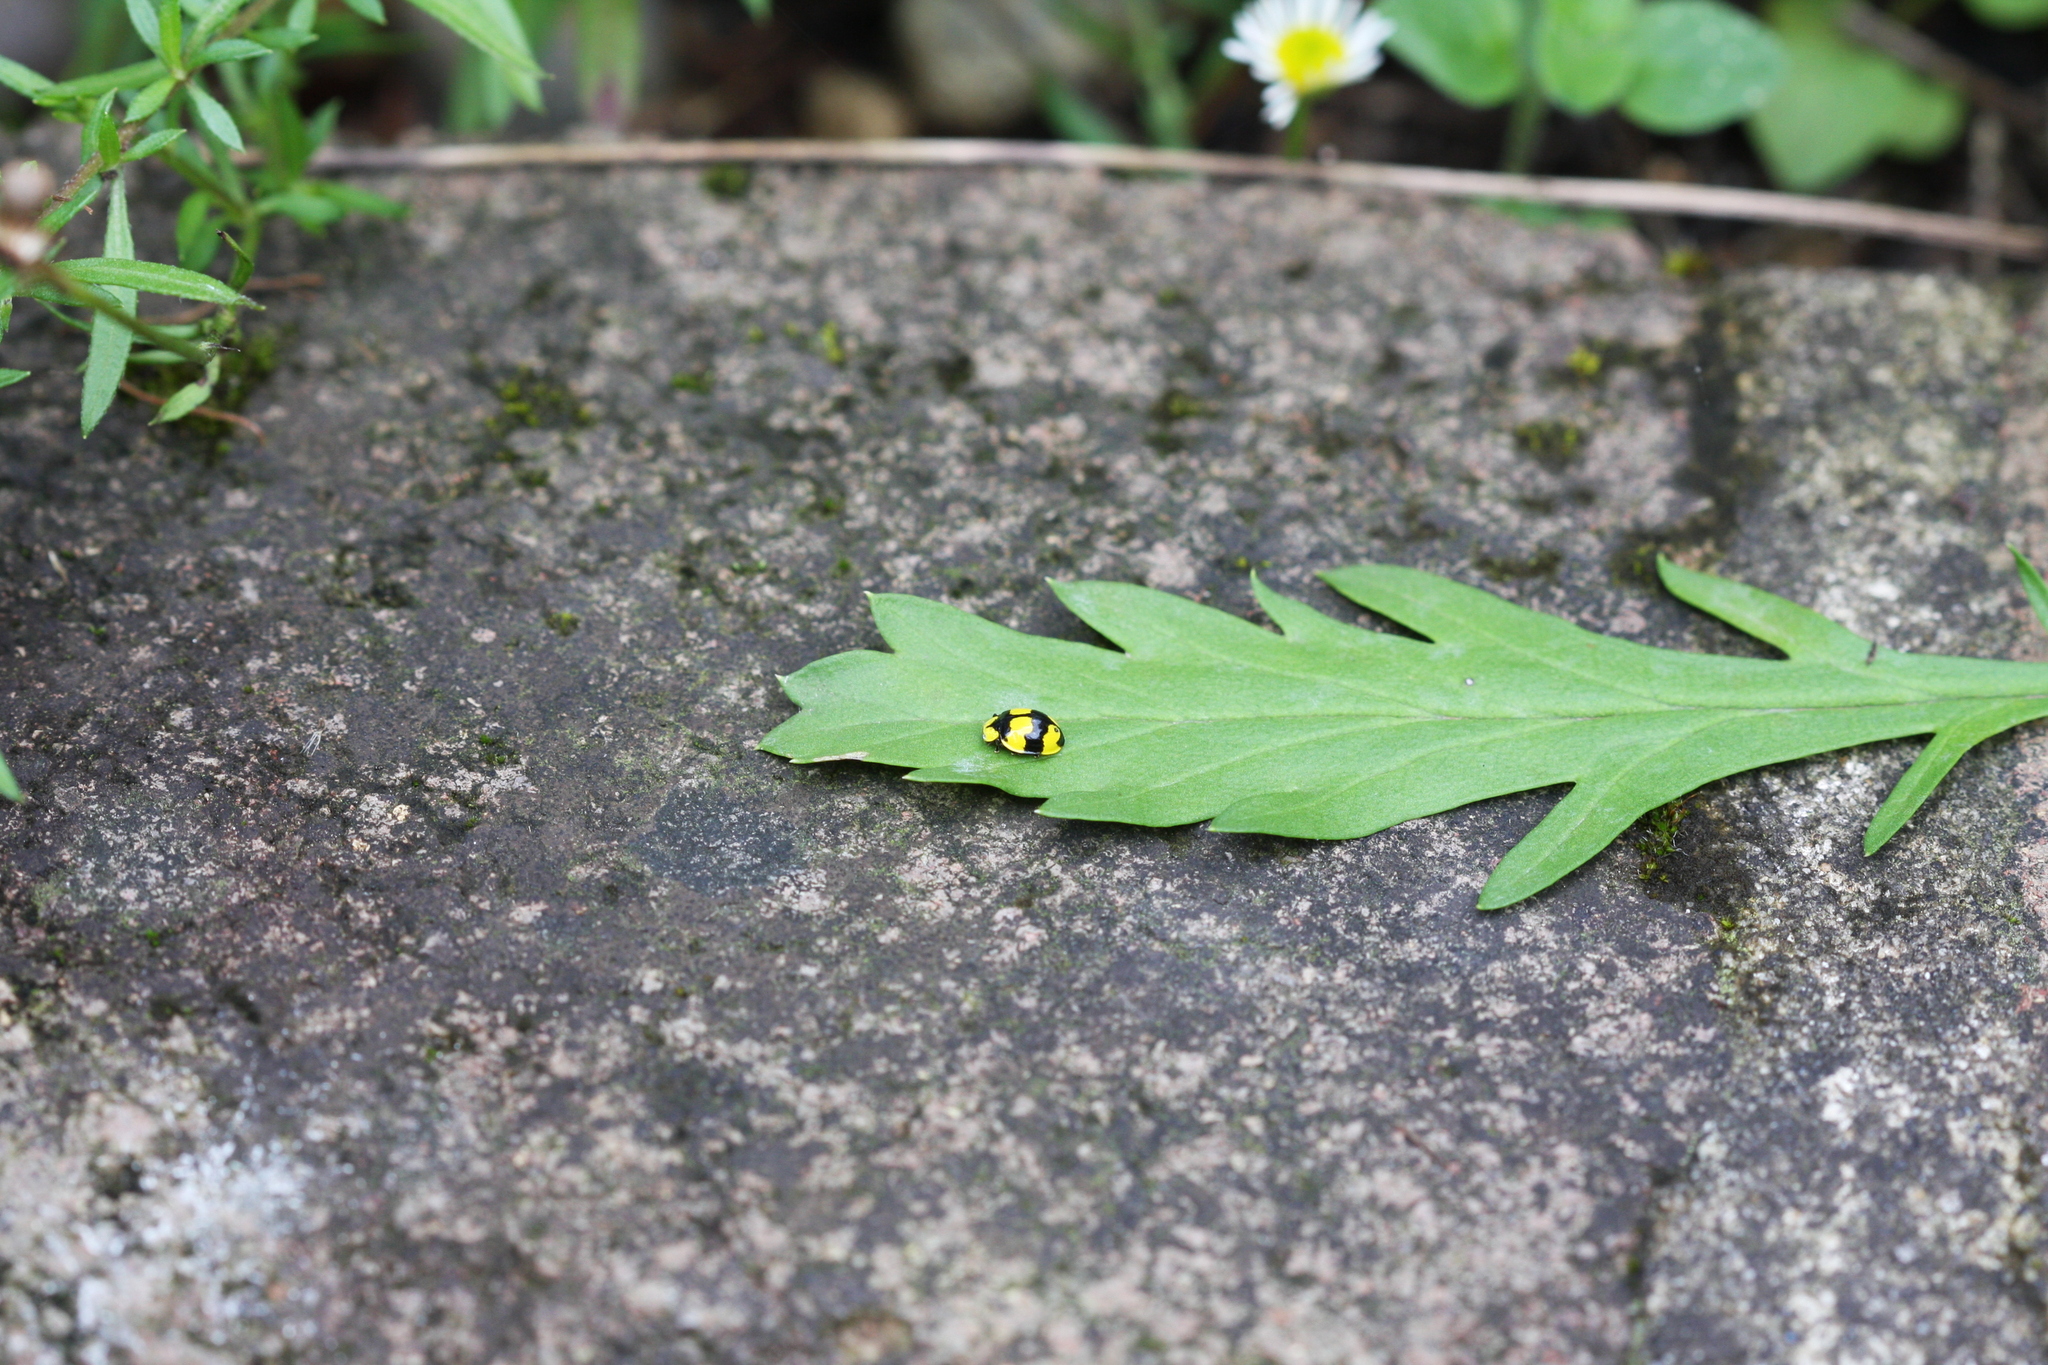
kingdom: Animalia
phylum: Arthropoda
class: Insecta
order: Coleoptera
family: Coccinellidae
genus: Illeis
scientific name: Illeis galbula
